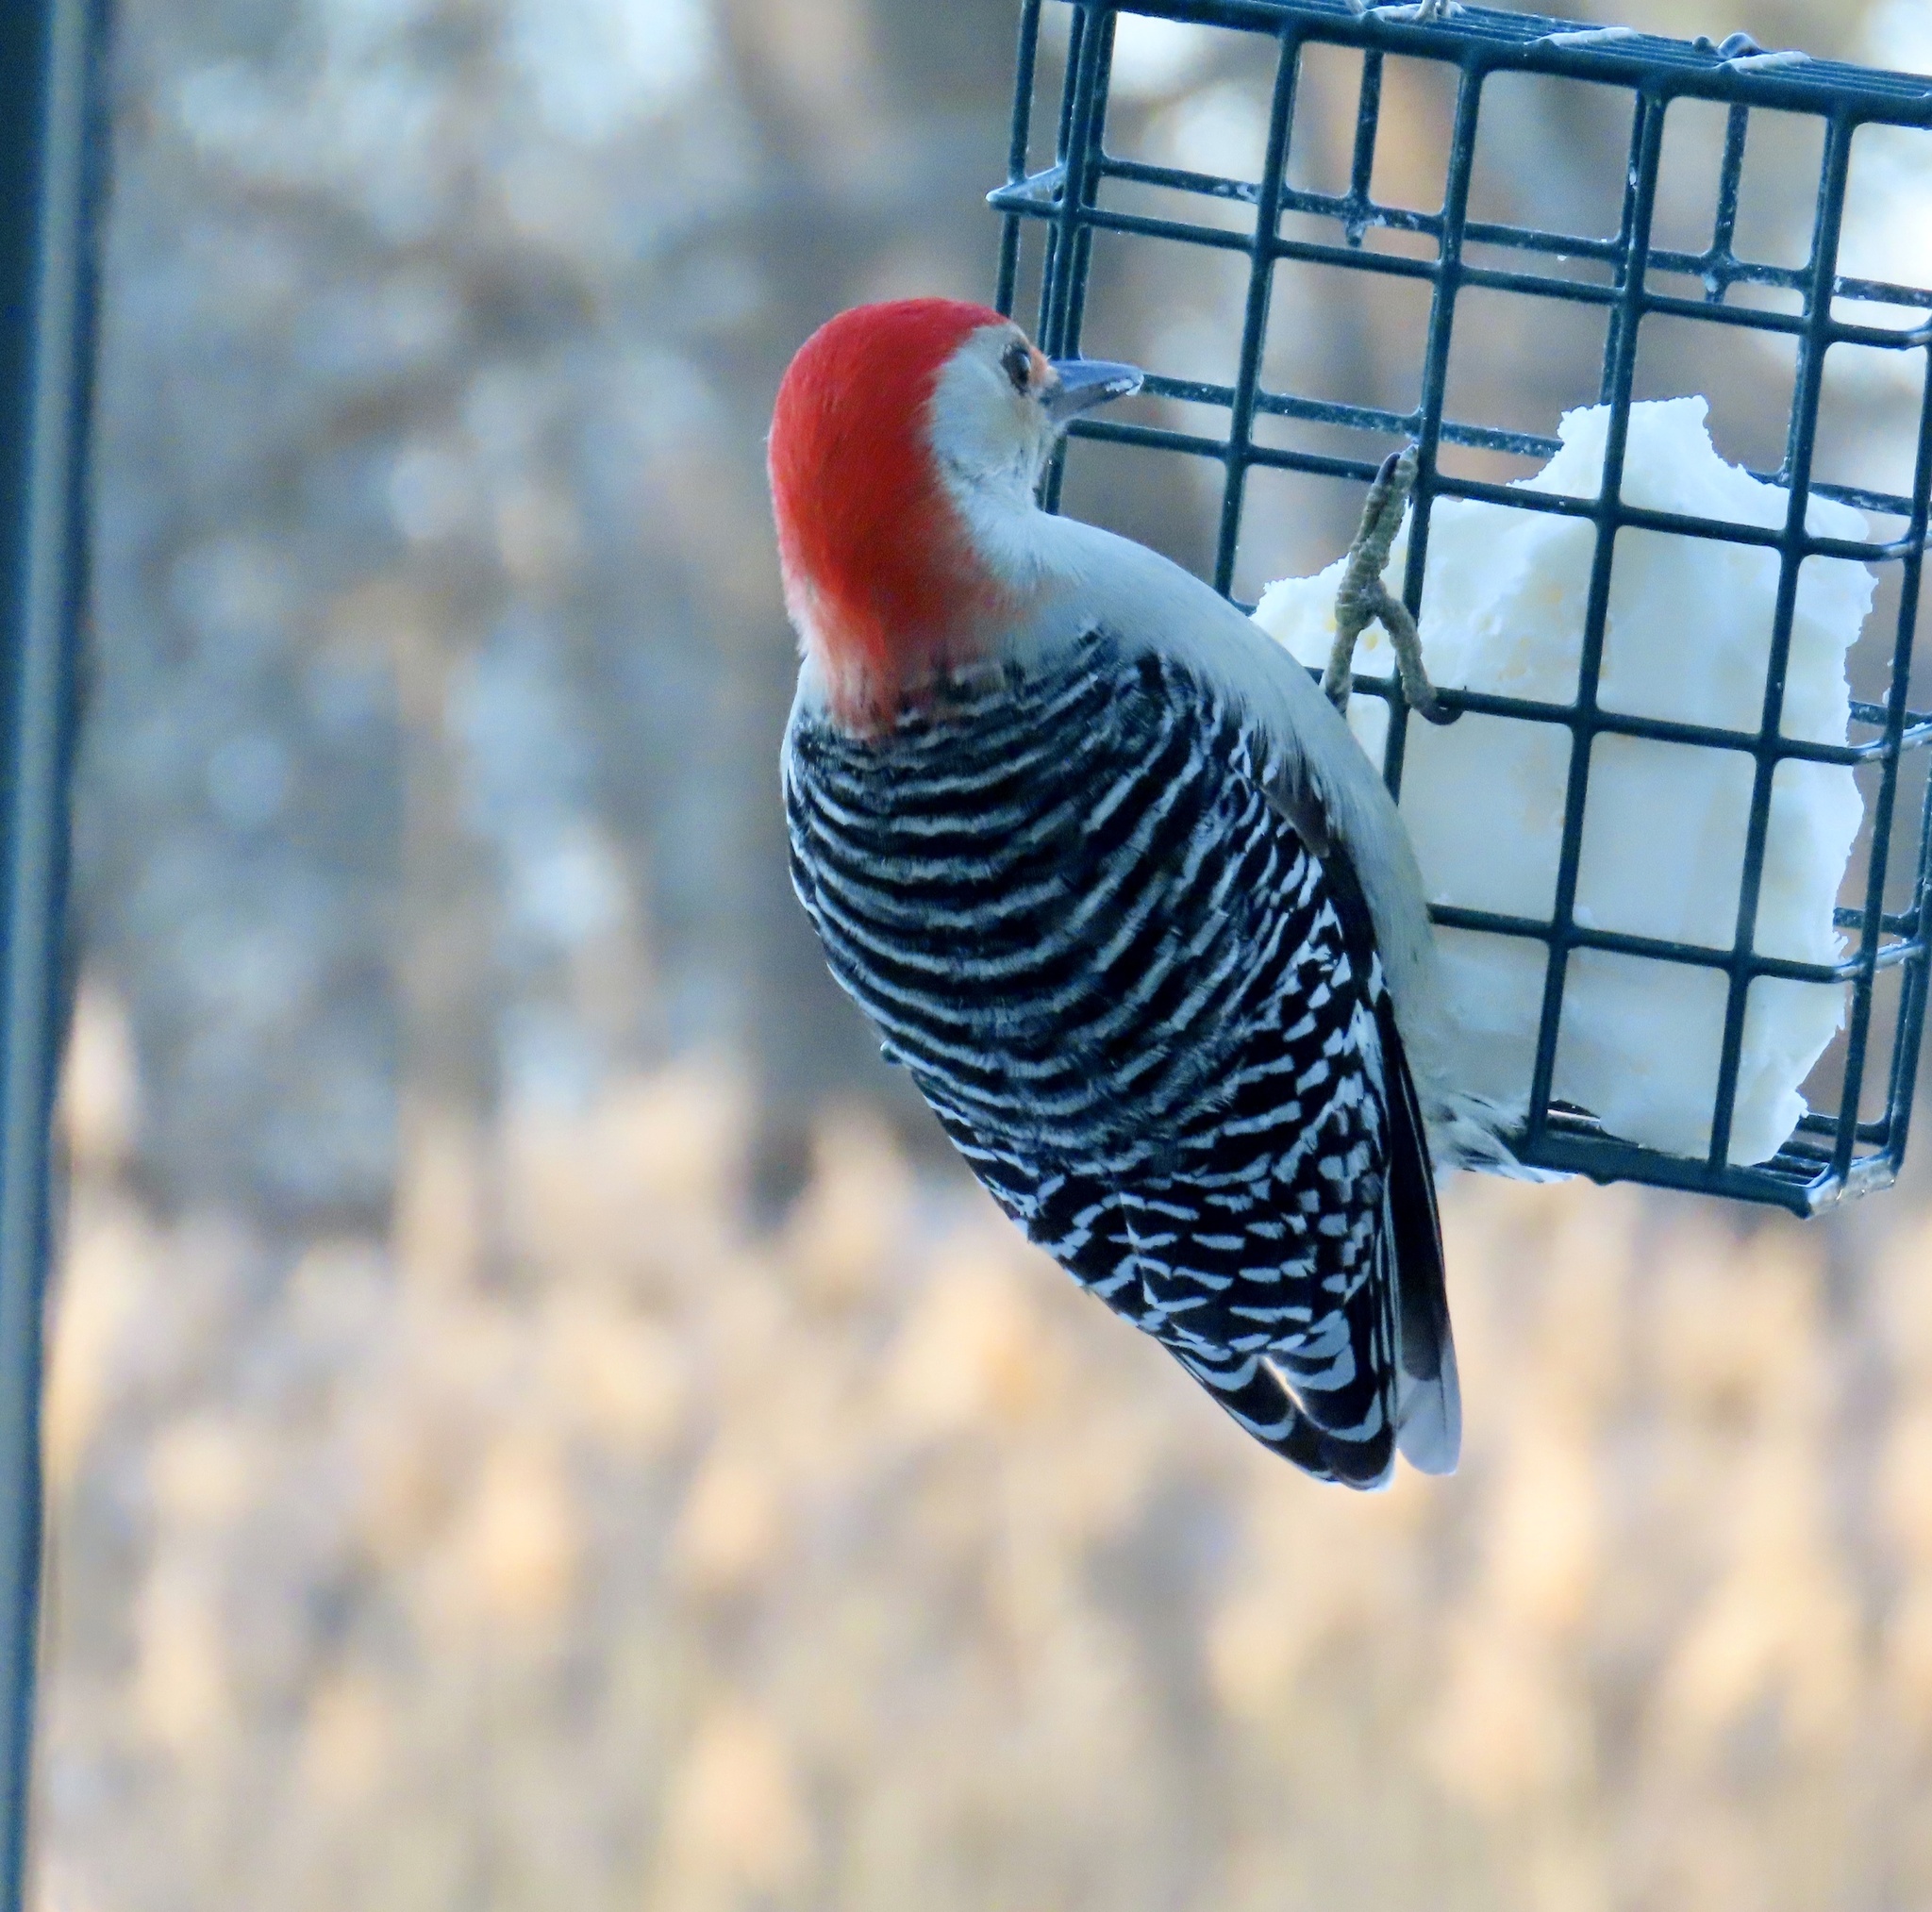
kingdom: Animalia
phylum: Chordata
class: Aves
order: Piciformes
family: Picidae
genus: Melanerpes
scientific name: Melanerpes carolinus
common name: Red-bellied woodpecker
